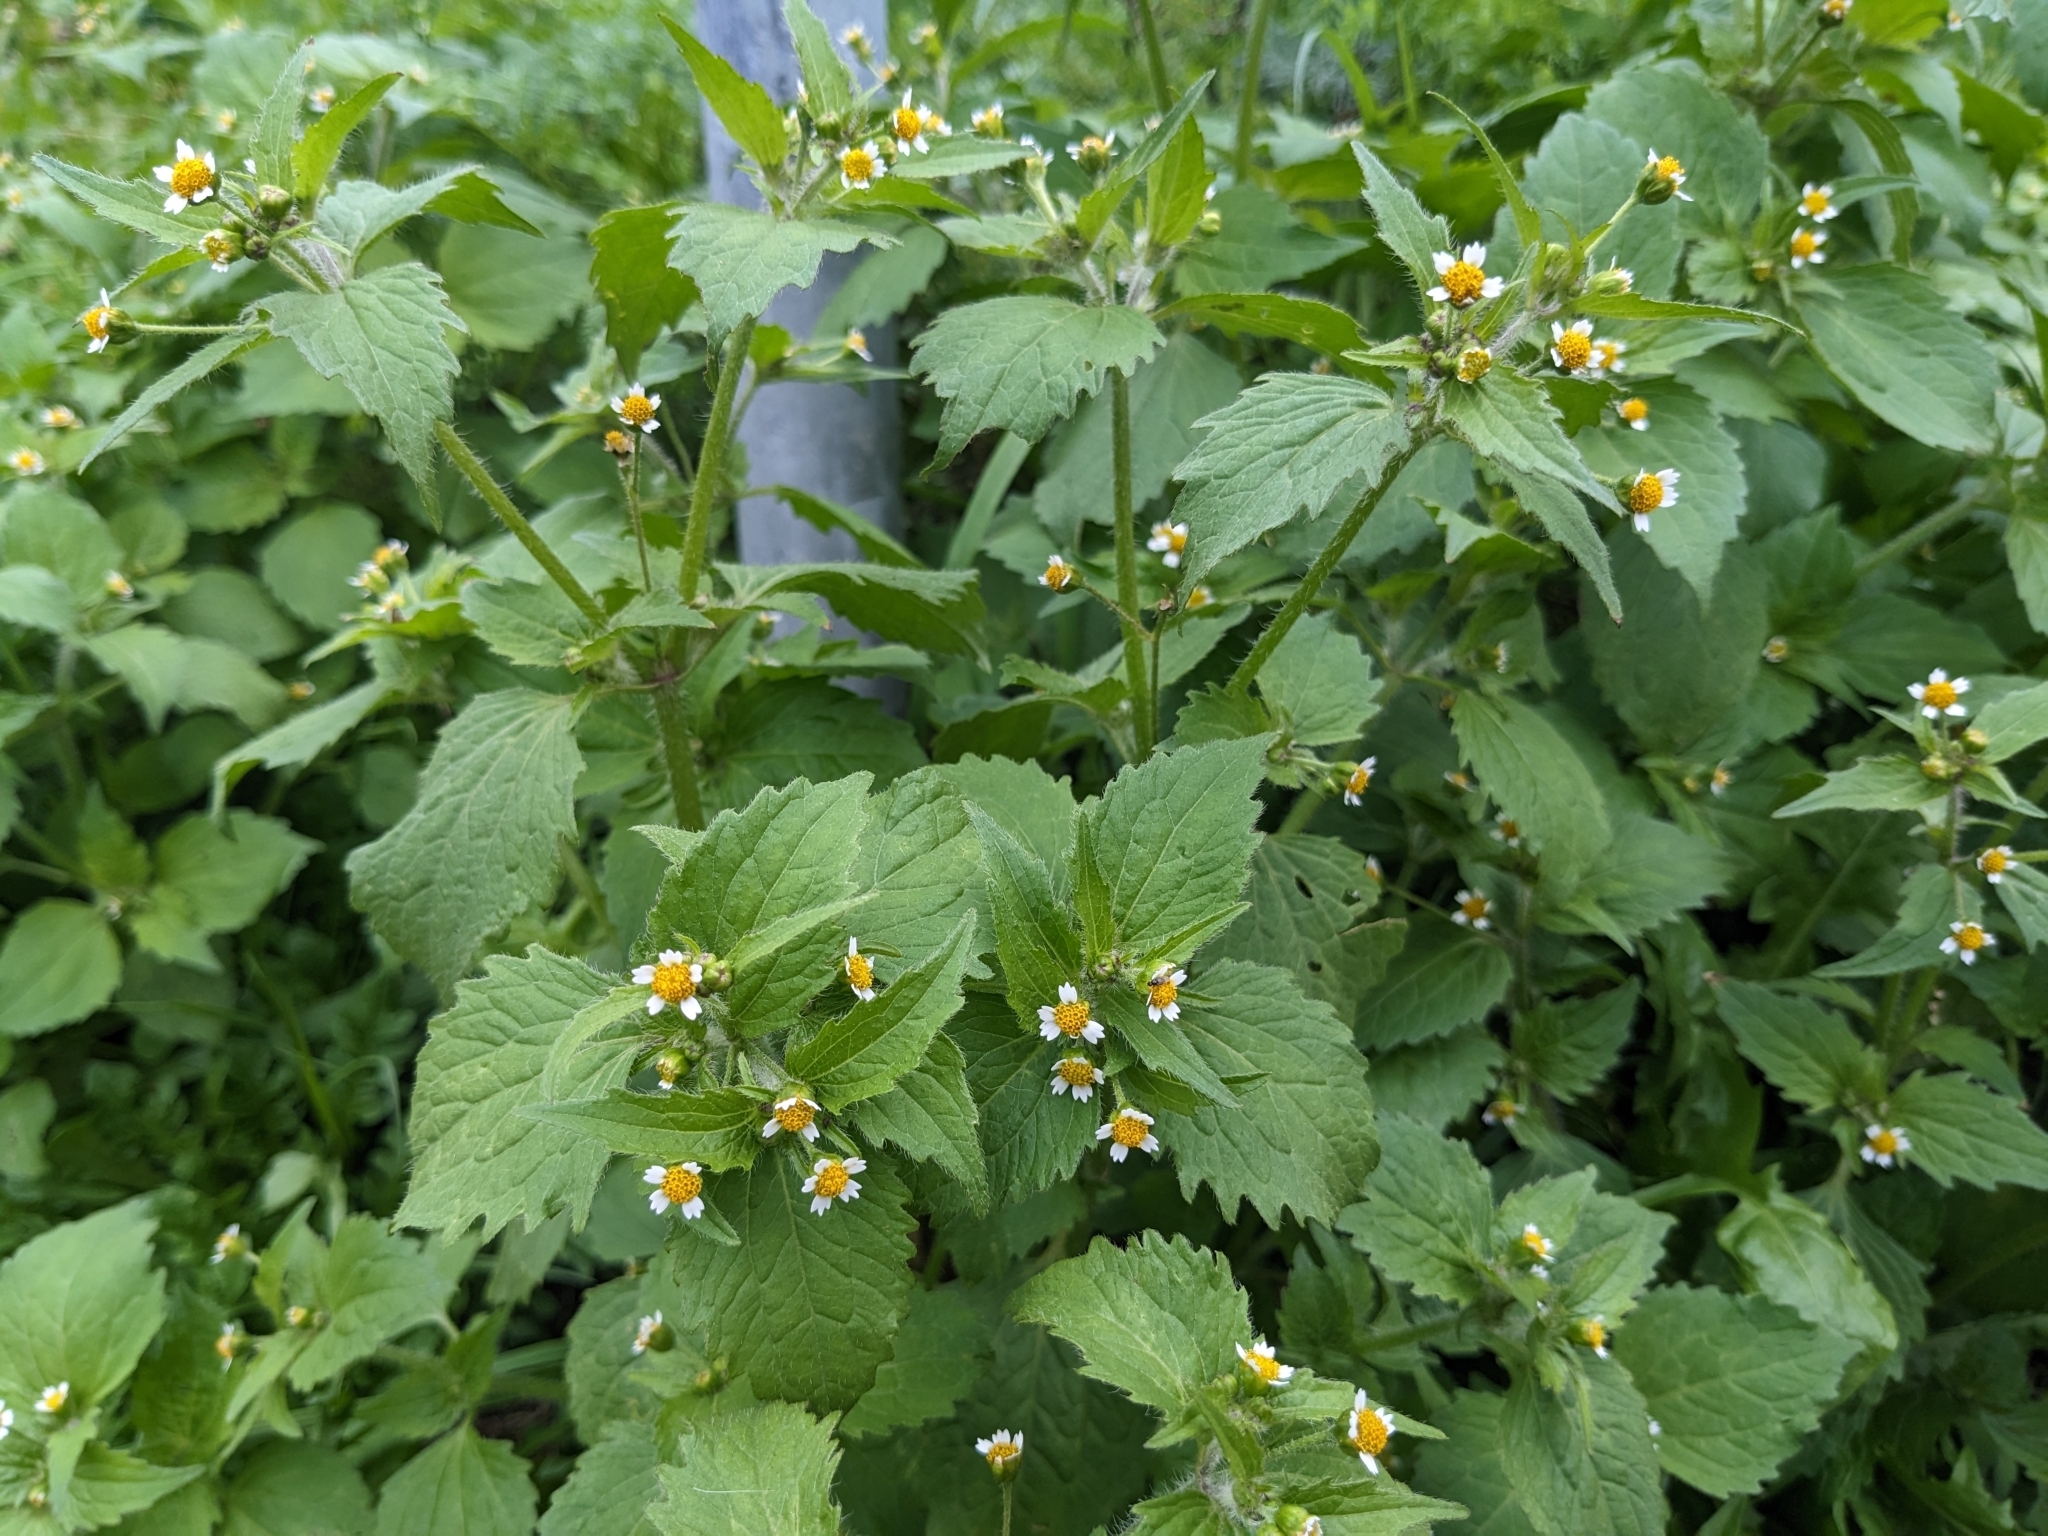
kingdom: Plantae
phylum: Tracheophyta
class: Magnoliopsida
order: Asterales
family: Asteraceae
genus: Galinsoga
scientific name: Galinsoga quadriradiata
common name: Shaggy soldier
